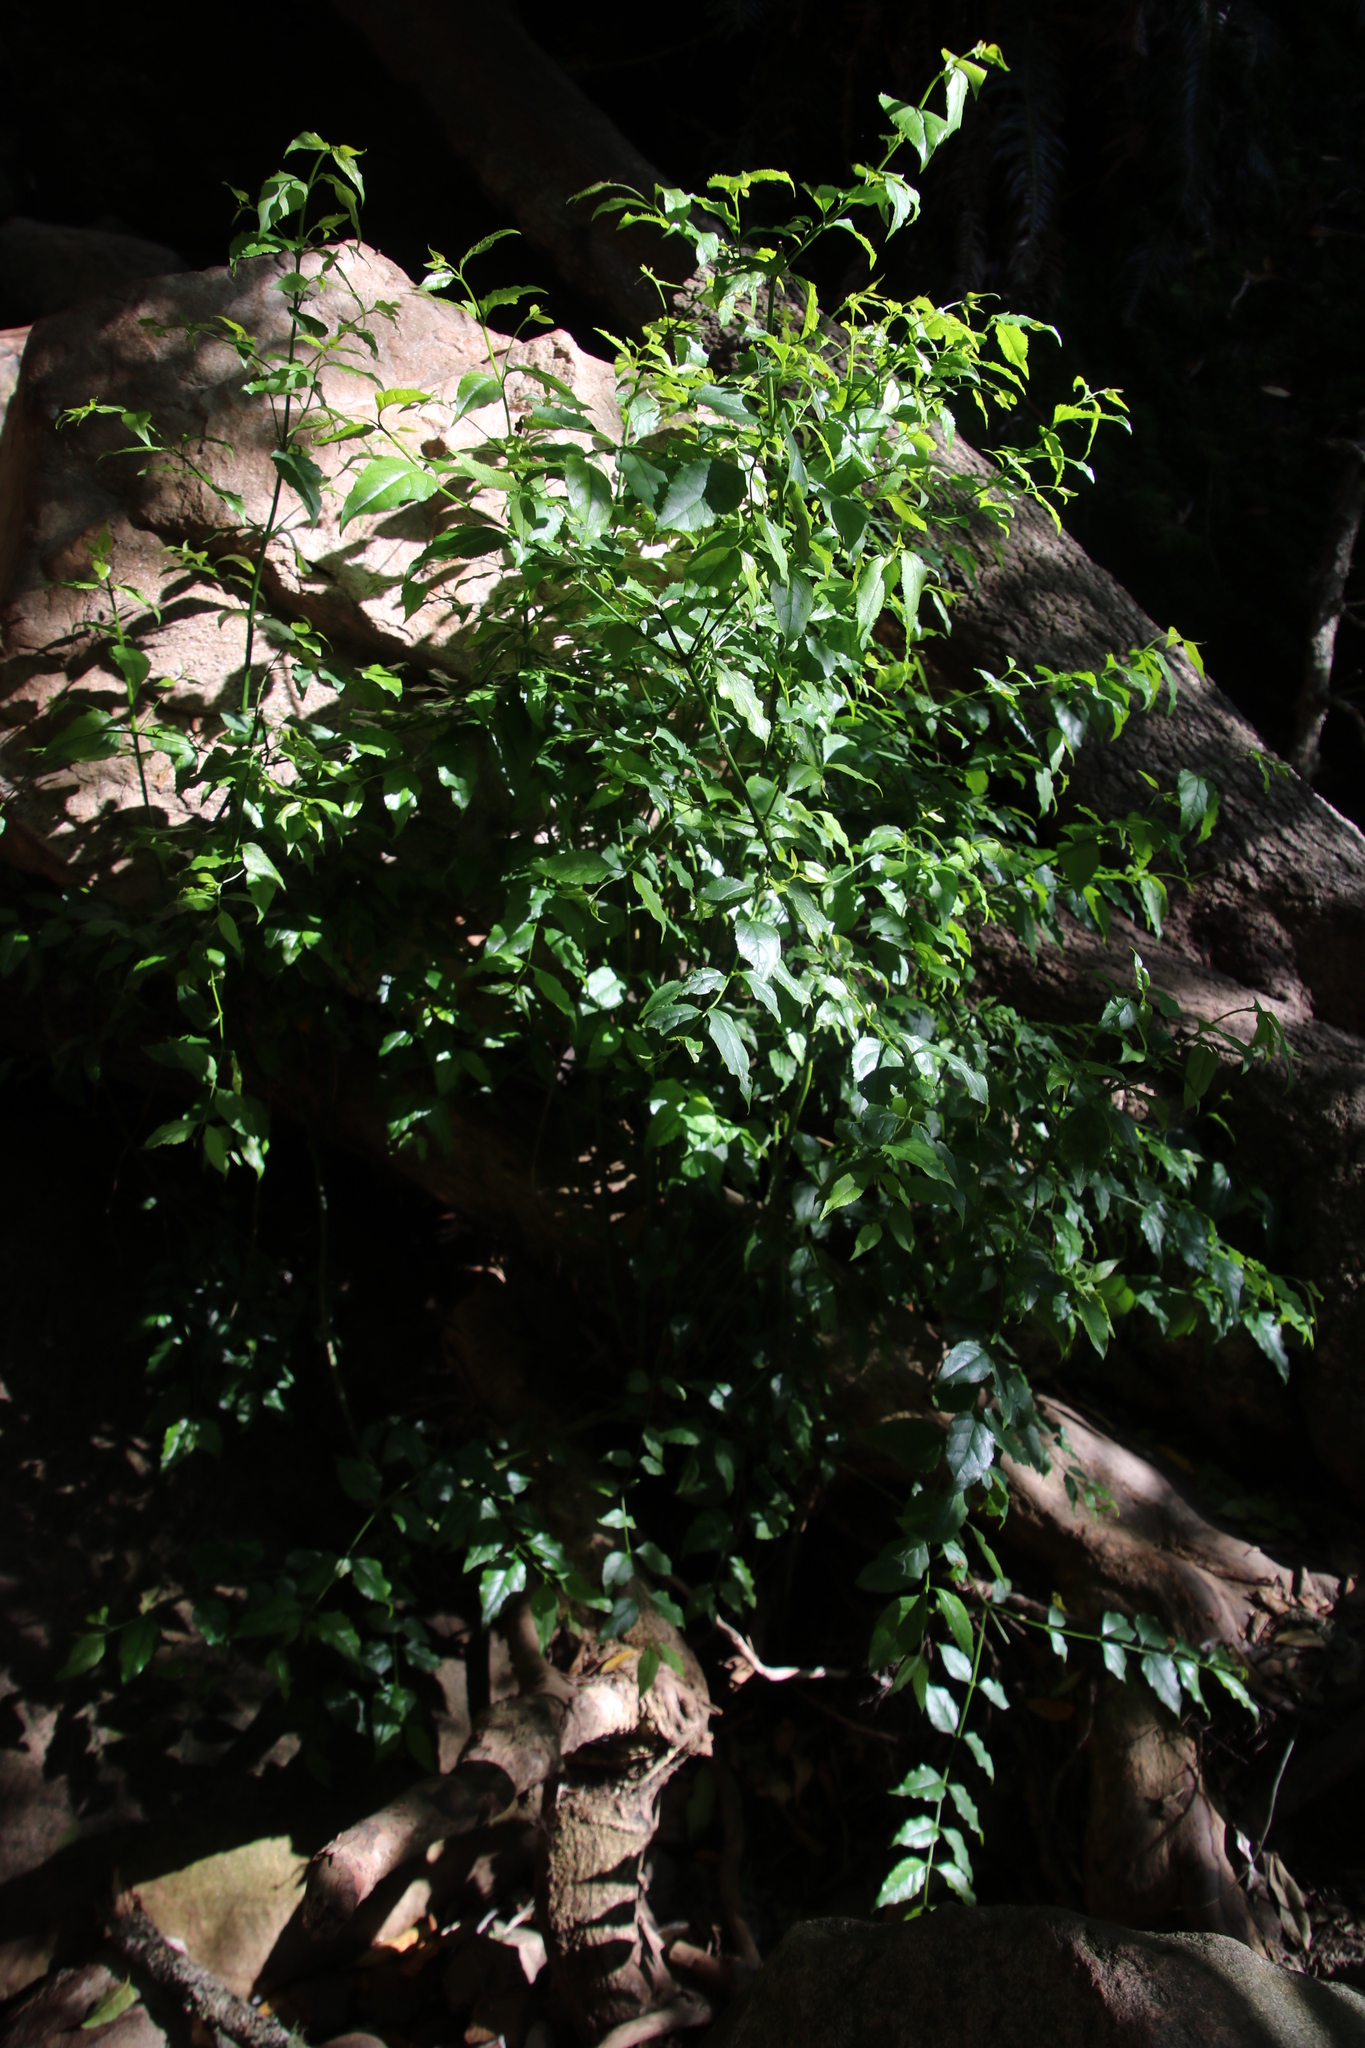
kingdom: Plantae
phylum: Tracheophyta
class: Magnoliopsida
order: Lamiales
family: Stilbaceae
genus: Halleria
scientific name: Halleria lucida
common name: Tree fuschia
